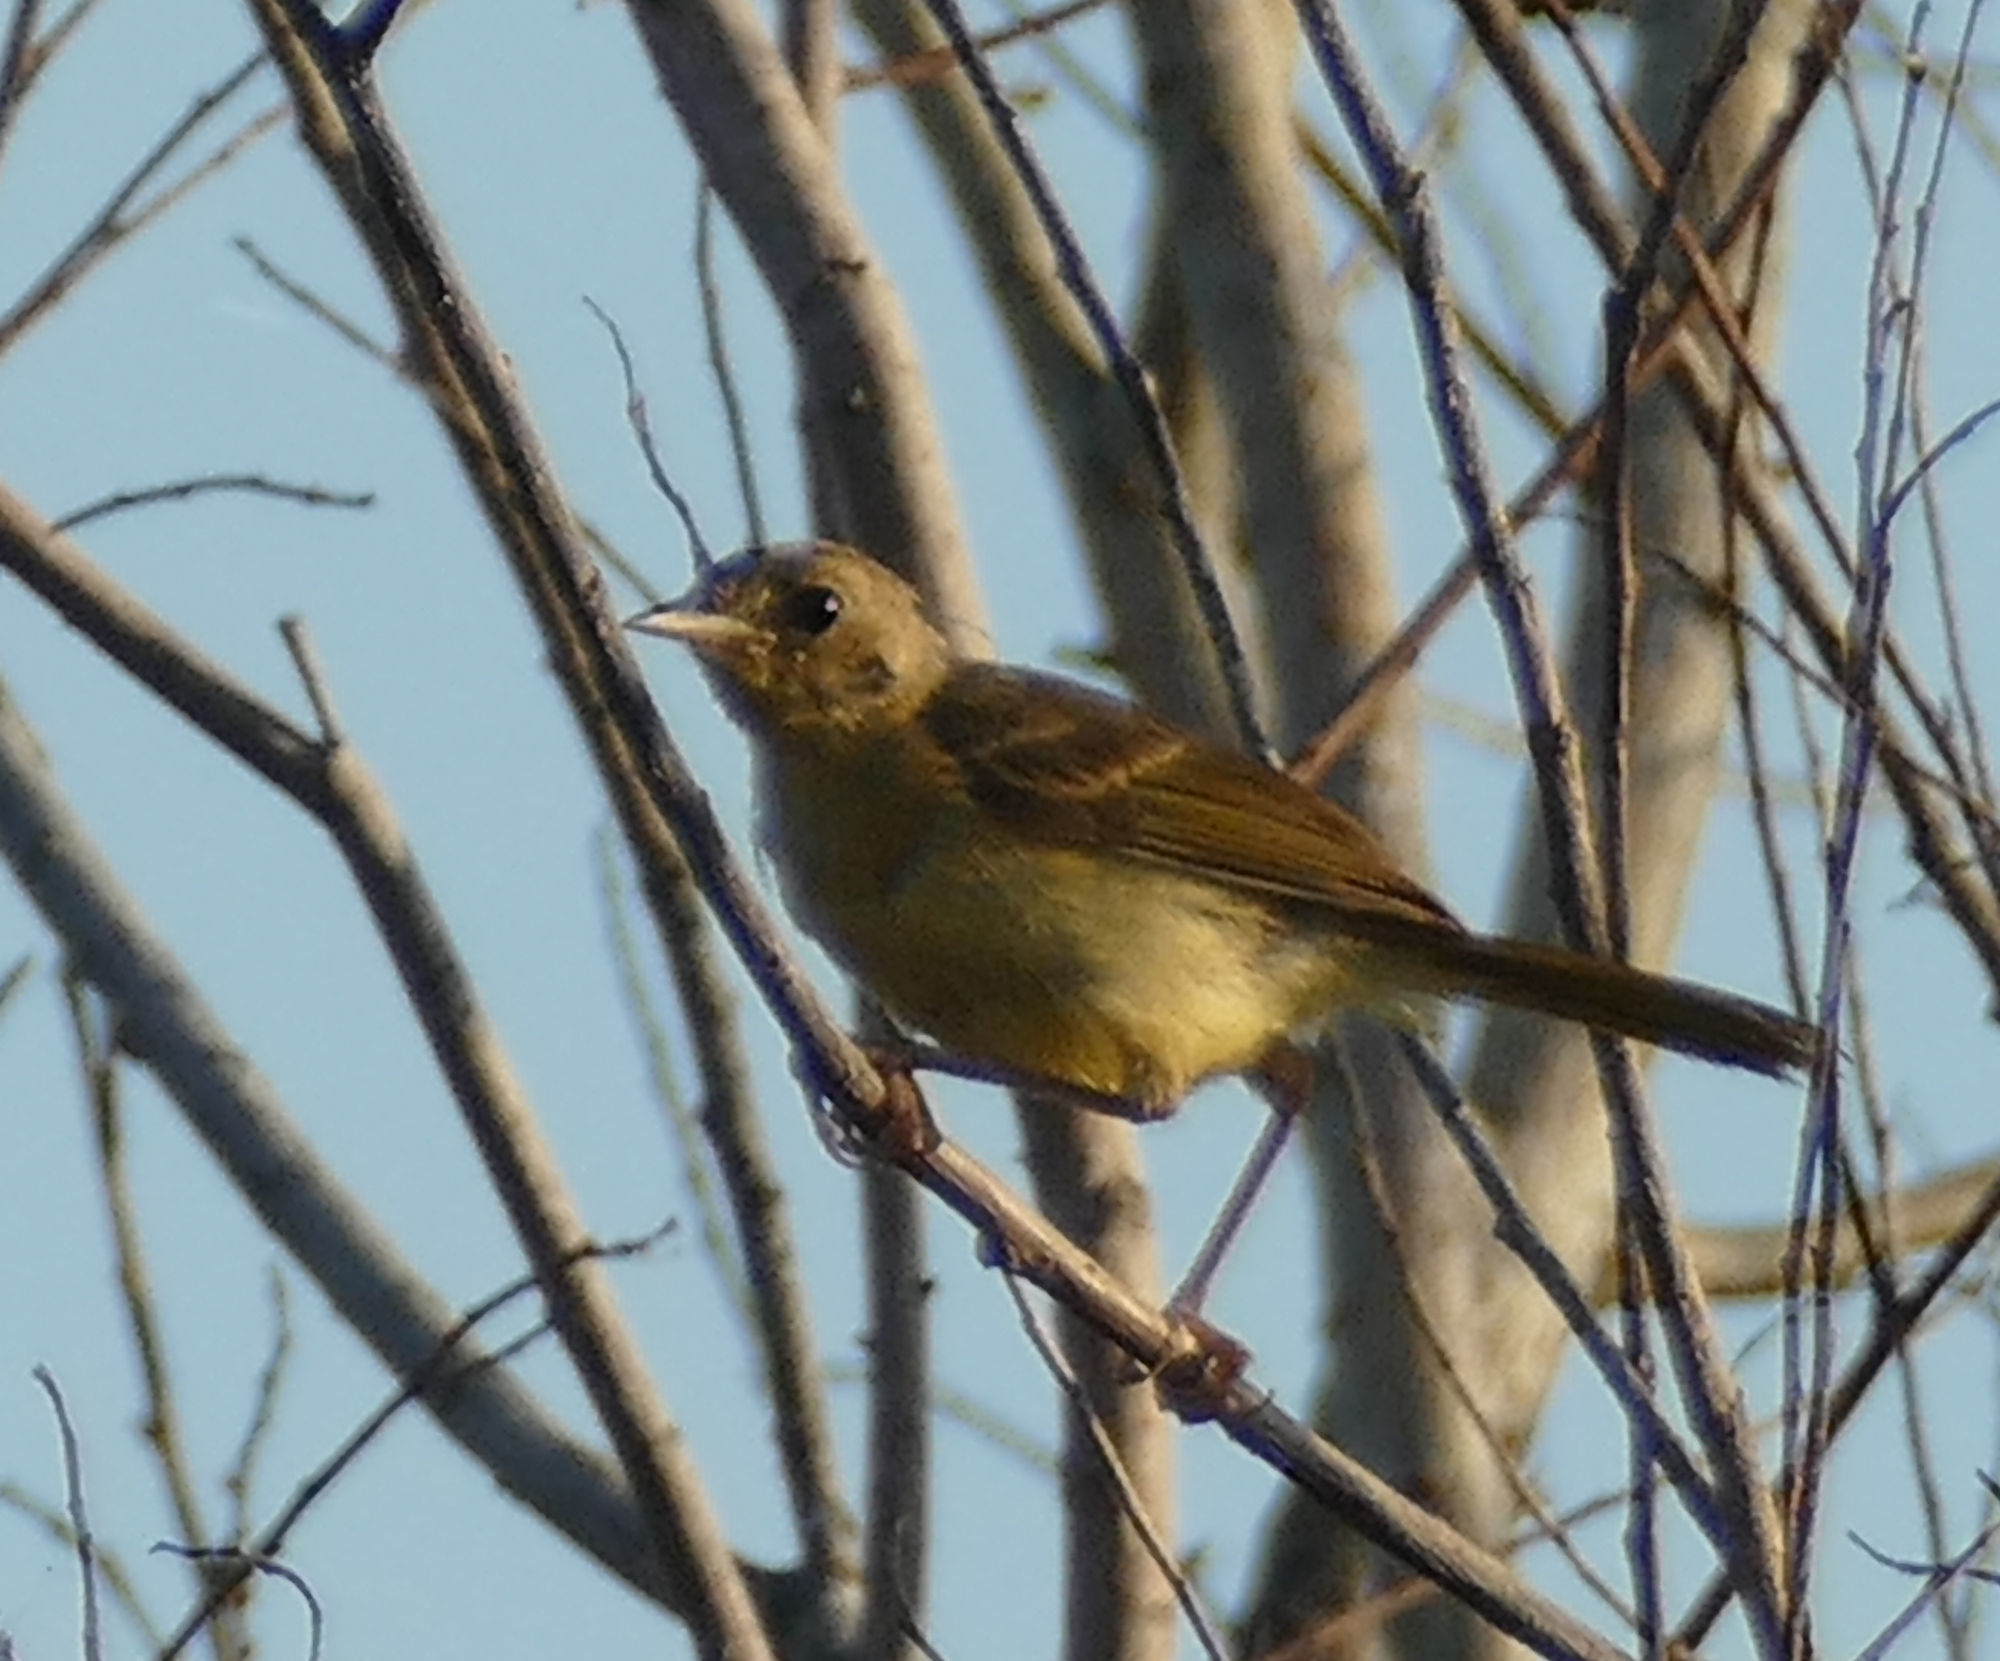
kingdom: Animalia
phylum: Chordata
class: Aves
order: Passeriformes
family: Parulidae
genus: Geothlypis
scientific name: Geothlypis trichas
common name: Common yellowthroat
